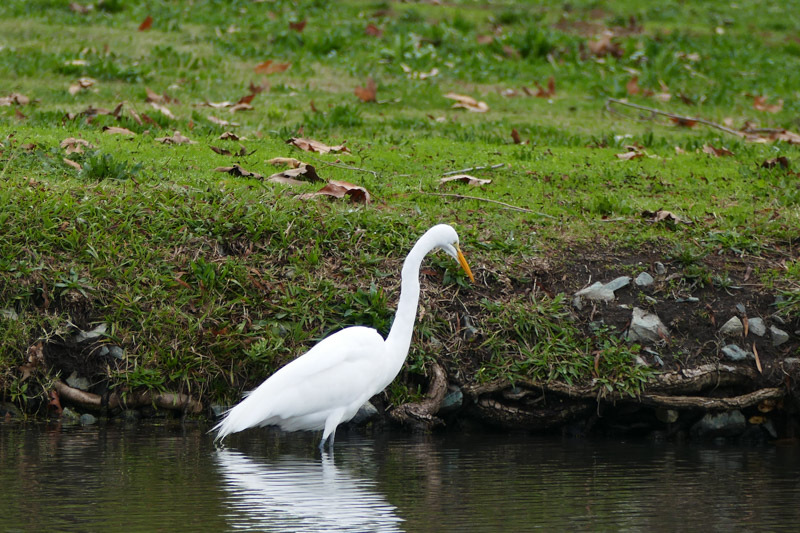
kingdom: Animalia
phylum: Chordata
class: Aves
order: Pelecaniformes
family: Ardeidae
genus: Ardea
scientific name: Ardea alba
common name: Great egret
